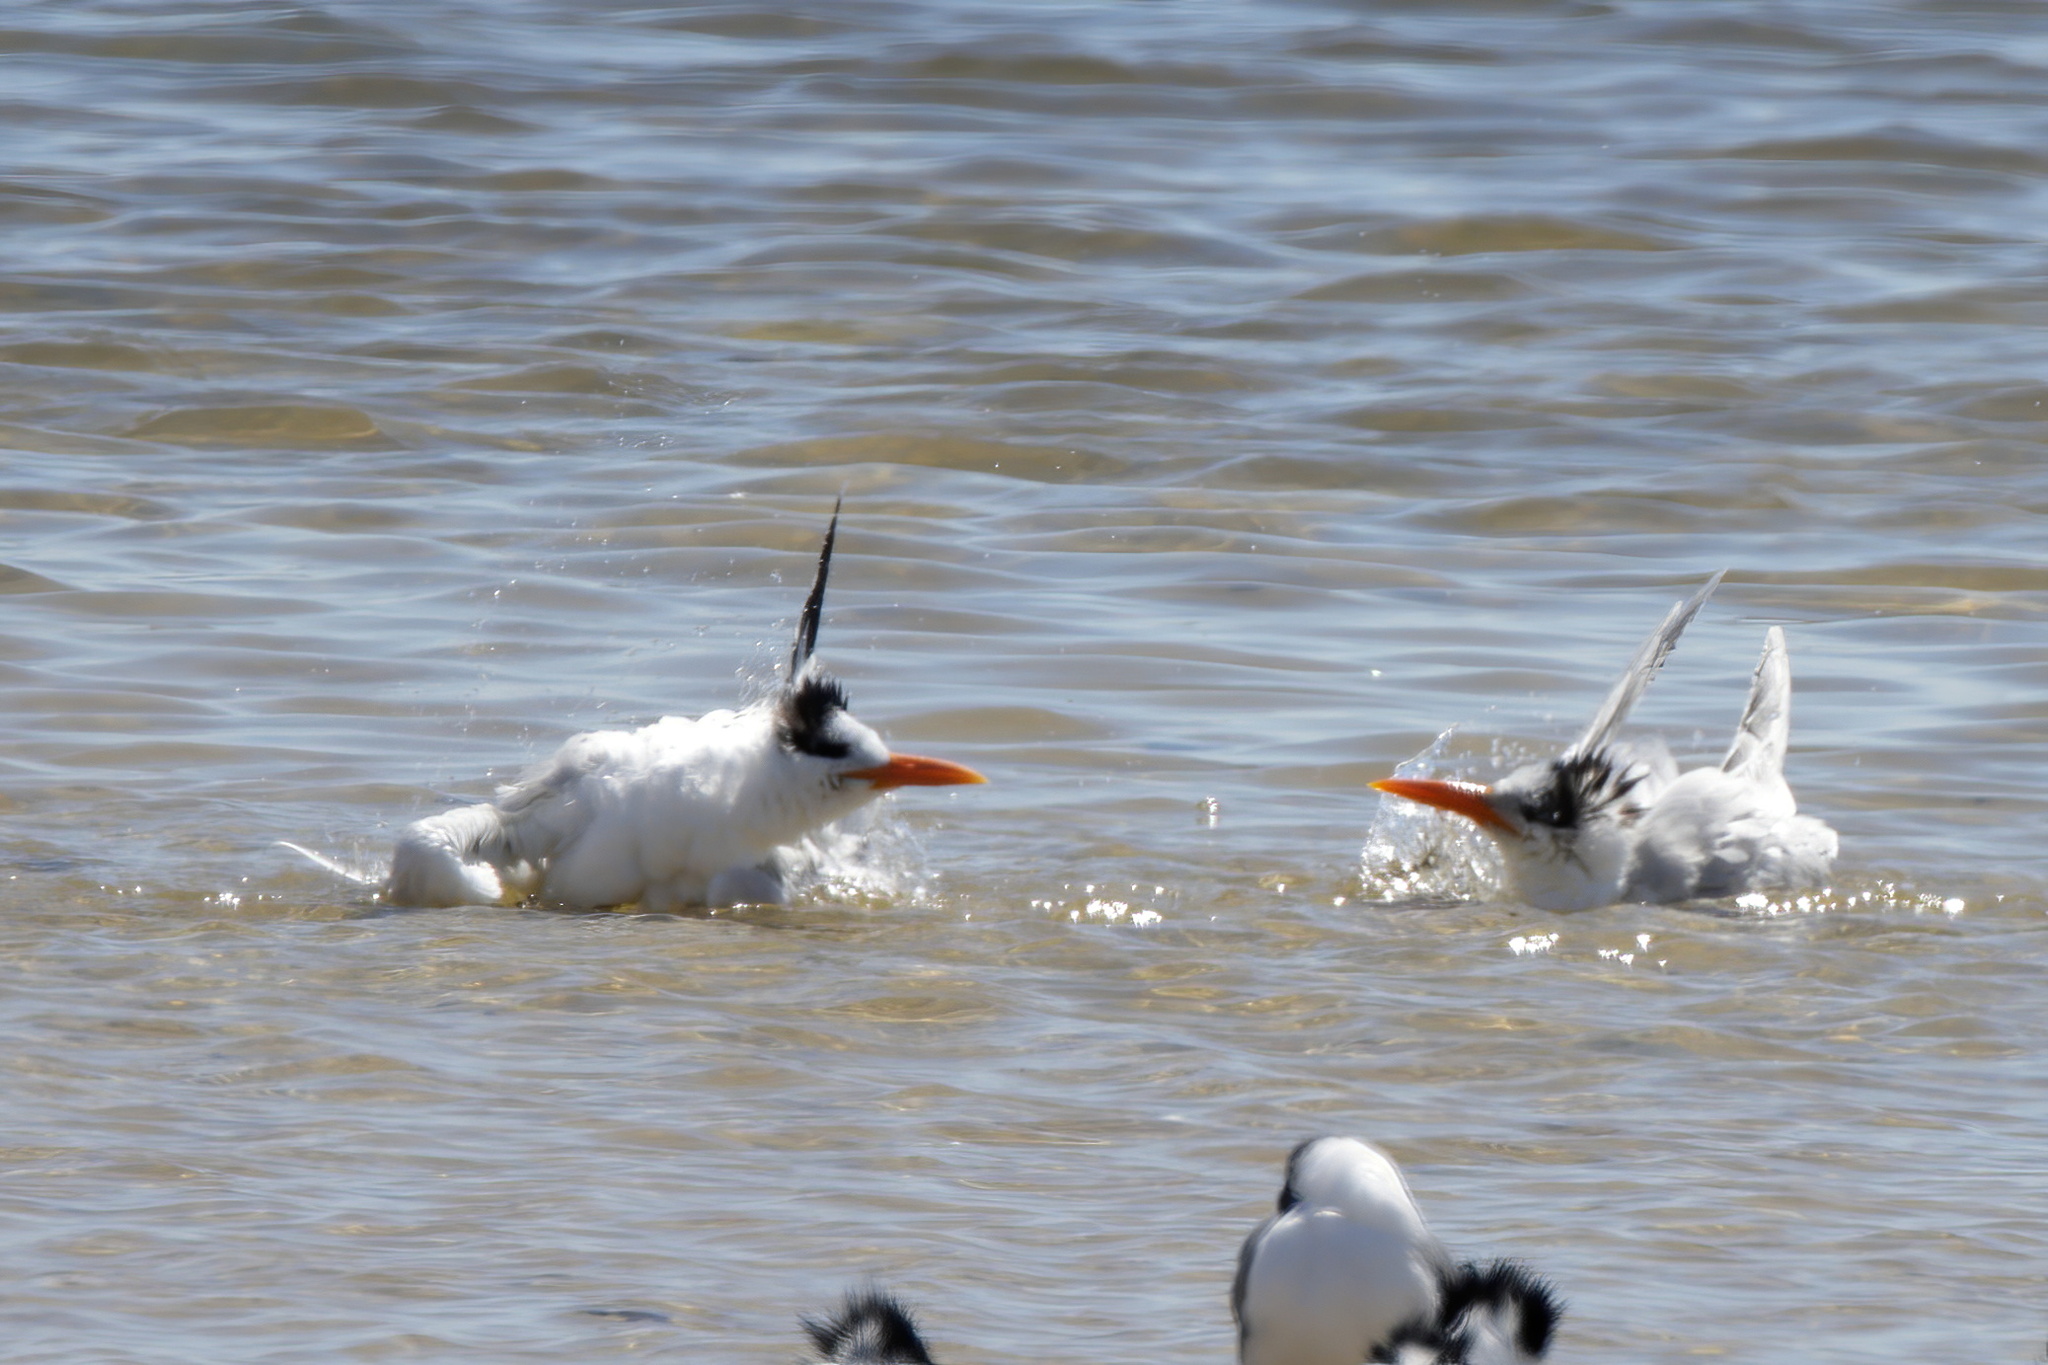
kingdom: Animalia
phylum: Chordata
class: Aves
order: Charadriiformes
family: Laridae
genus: Thalasseus
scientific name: Thalasseus maximus
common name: Royal tern
